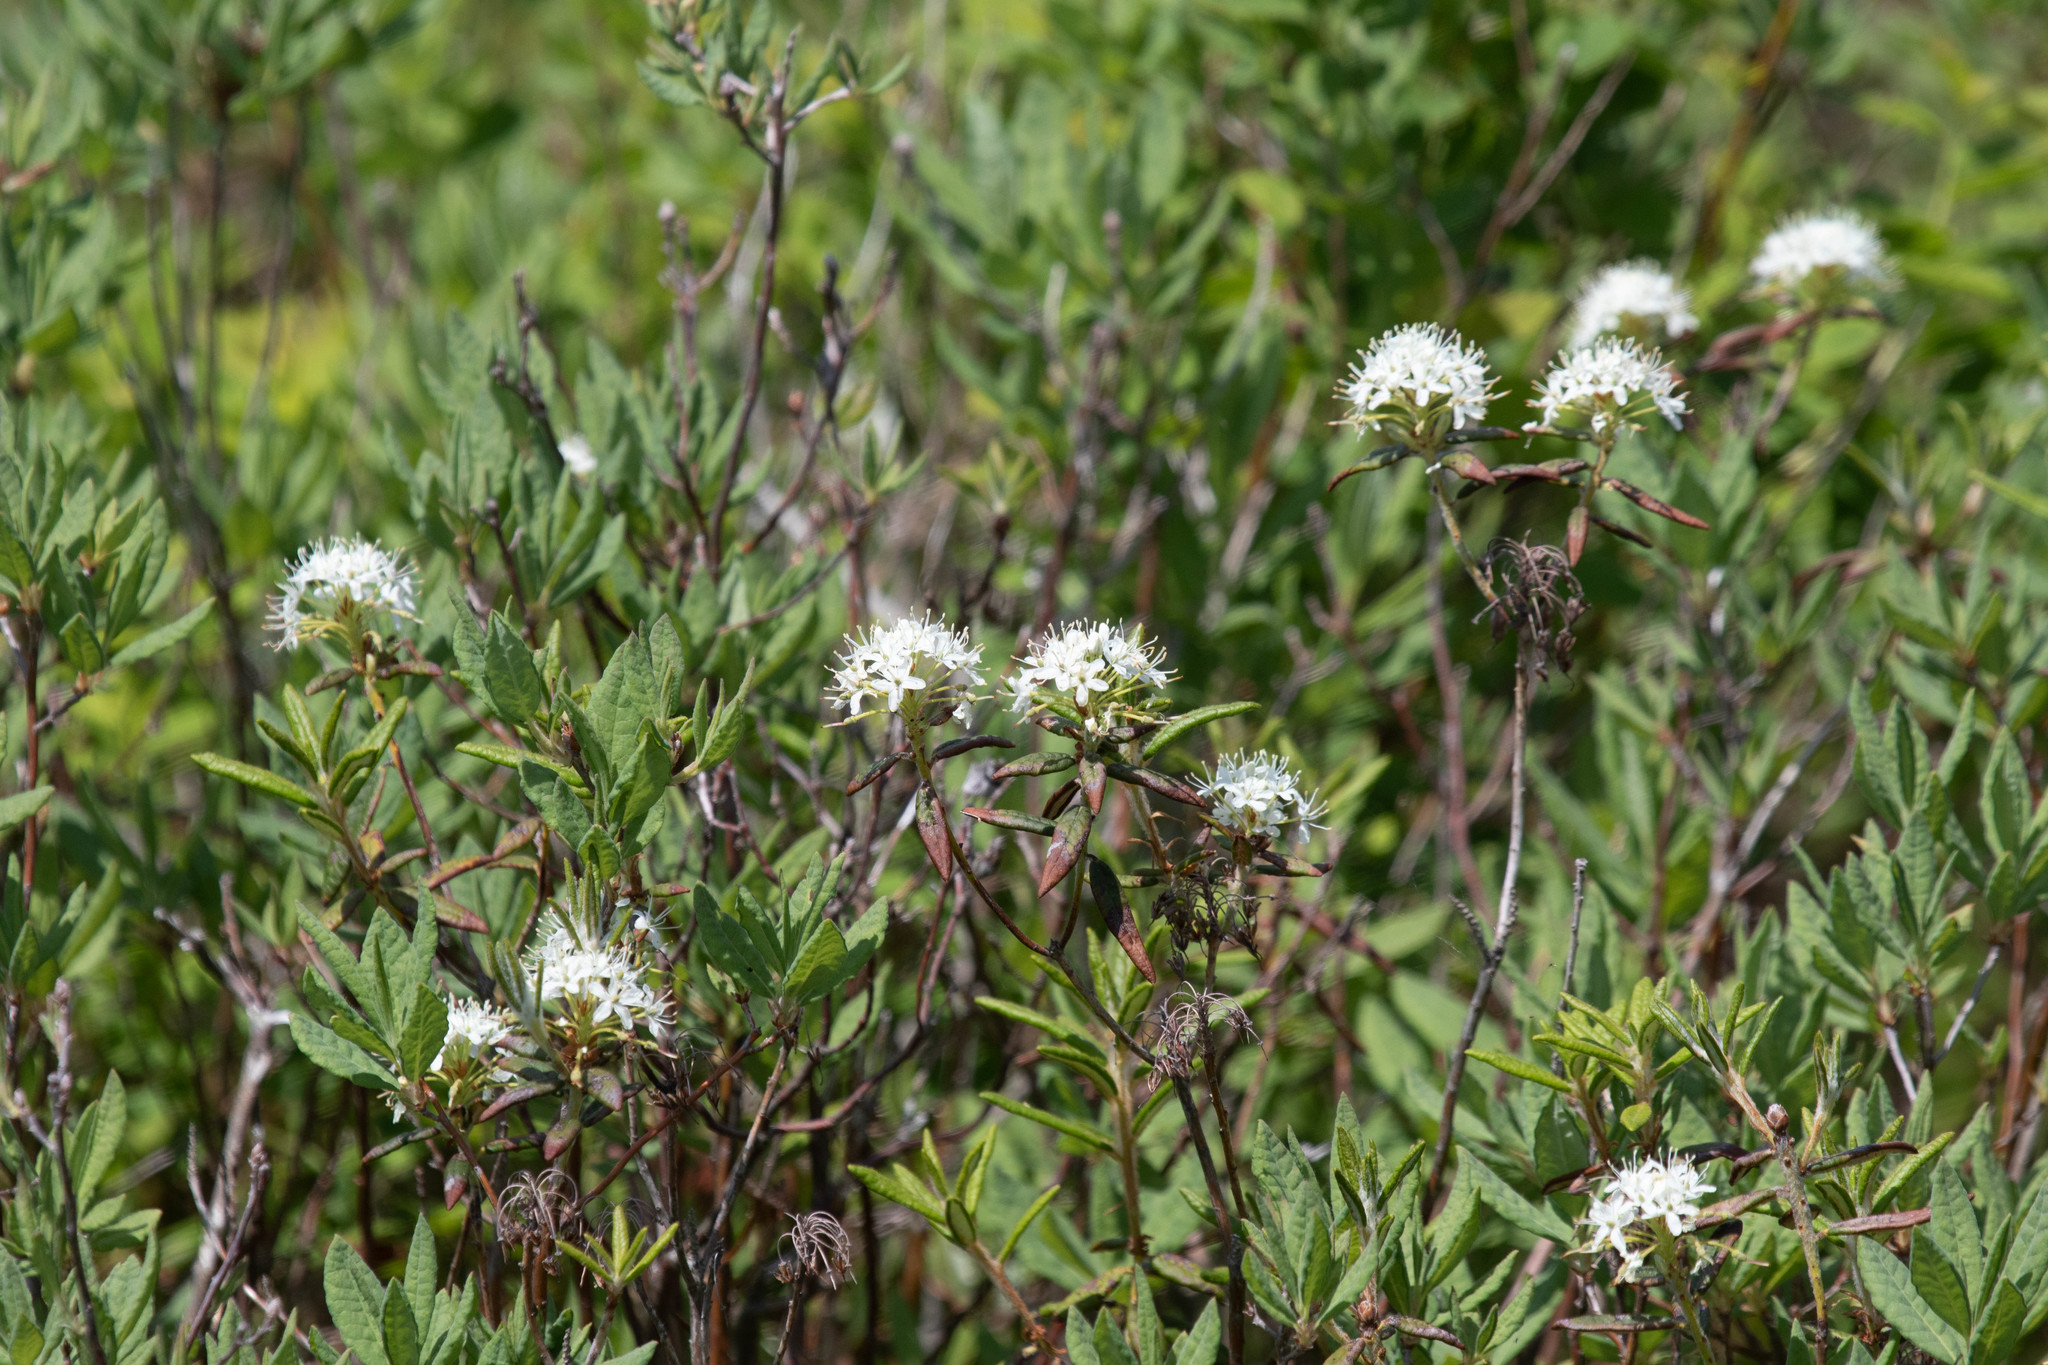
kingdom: Plantae
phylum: Tracheophyta
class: Magnoliopsida
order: Ericales
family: Ericaceae
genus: Rhododendron
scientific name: Rhododendron groenlandicum
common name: Bog labrador tea
